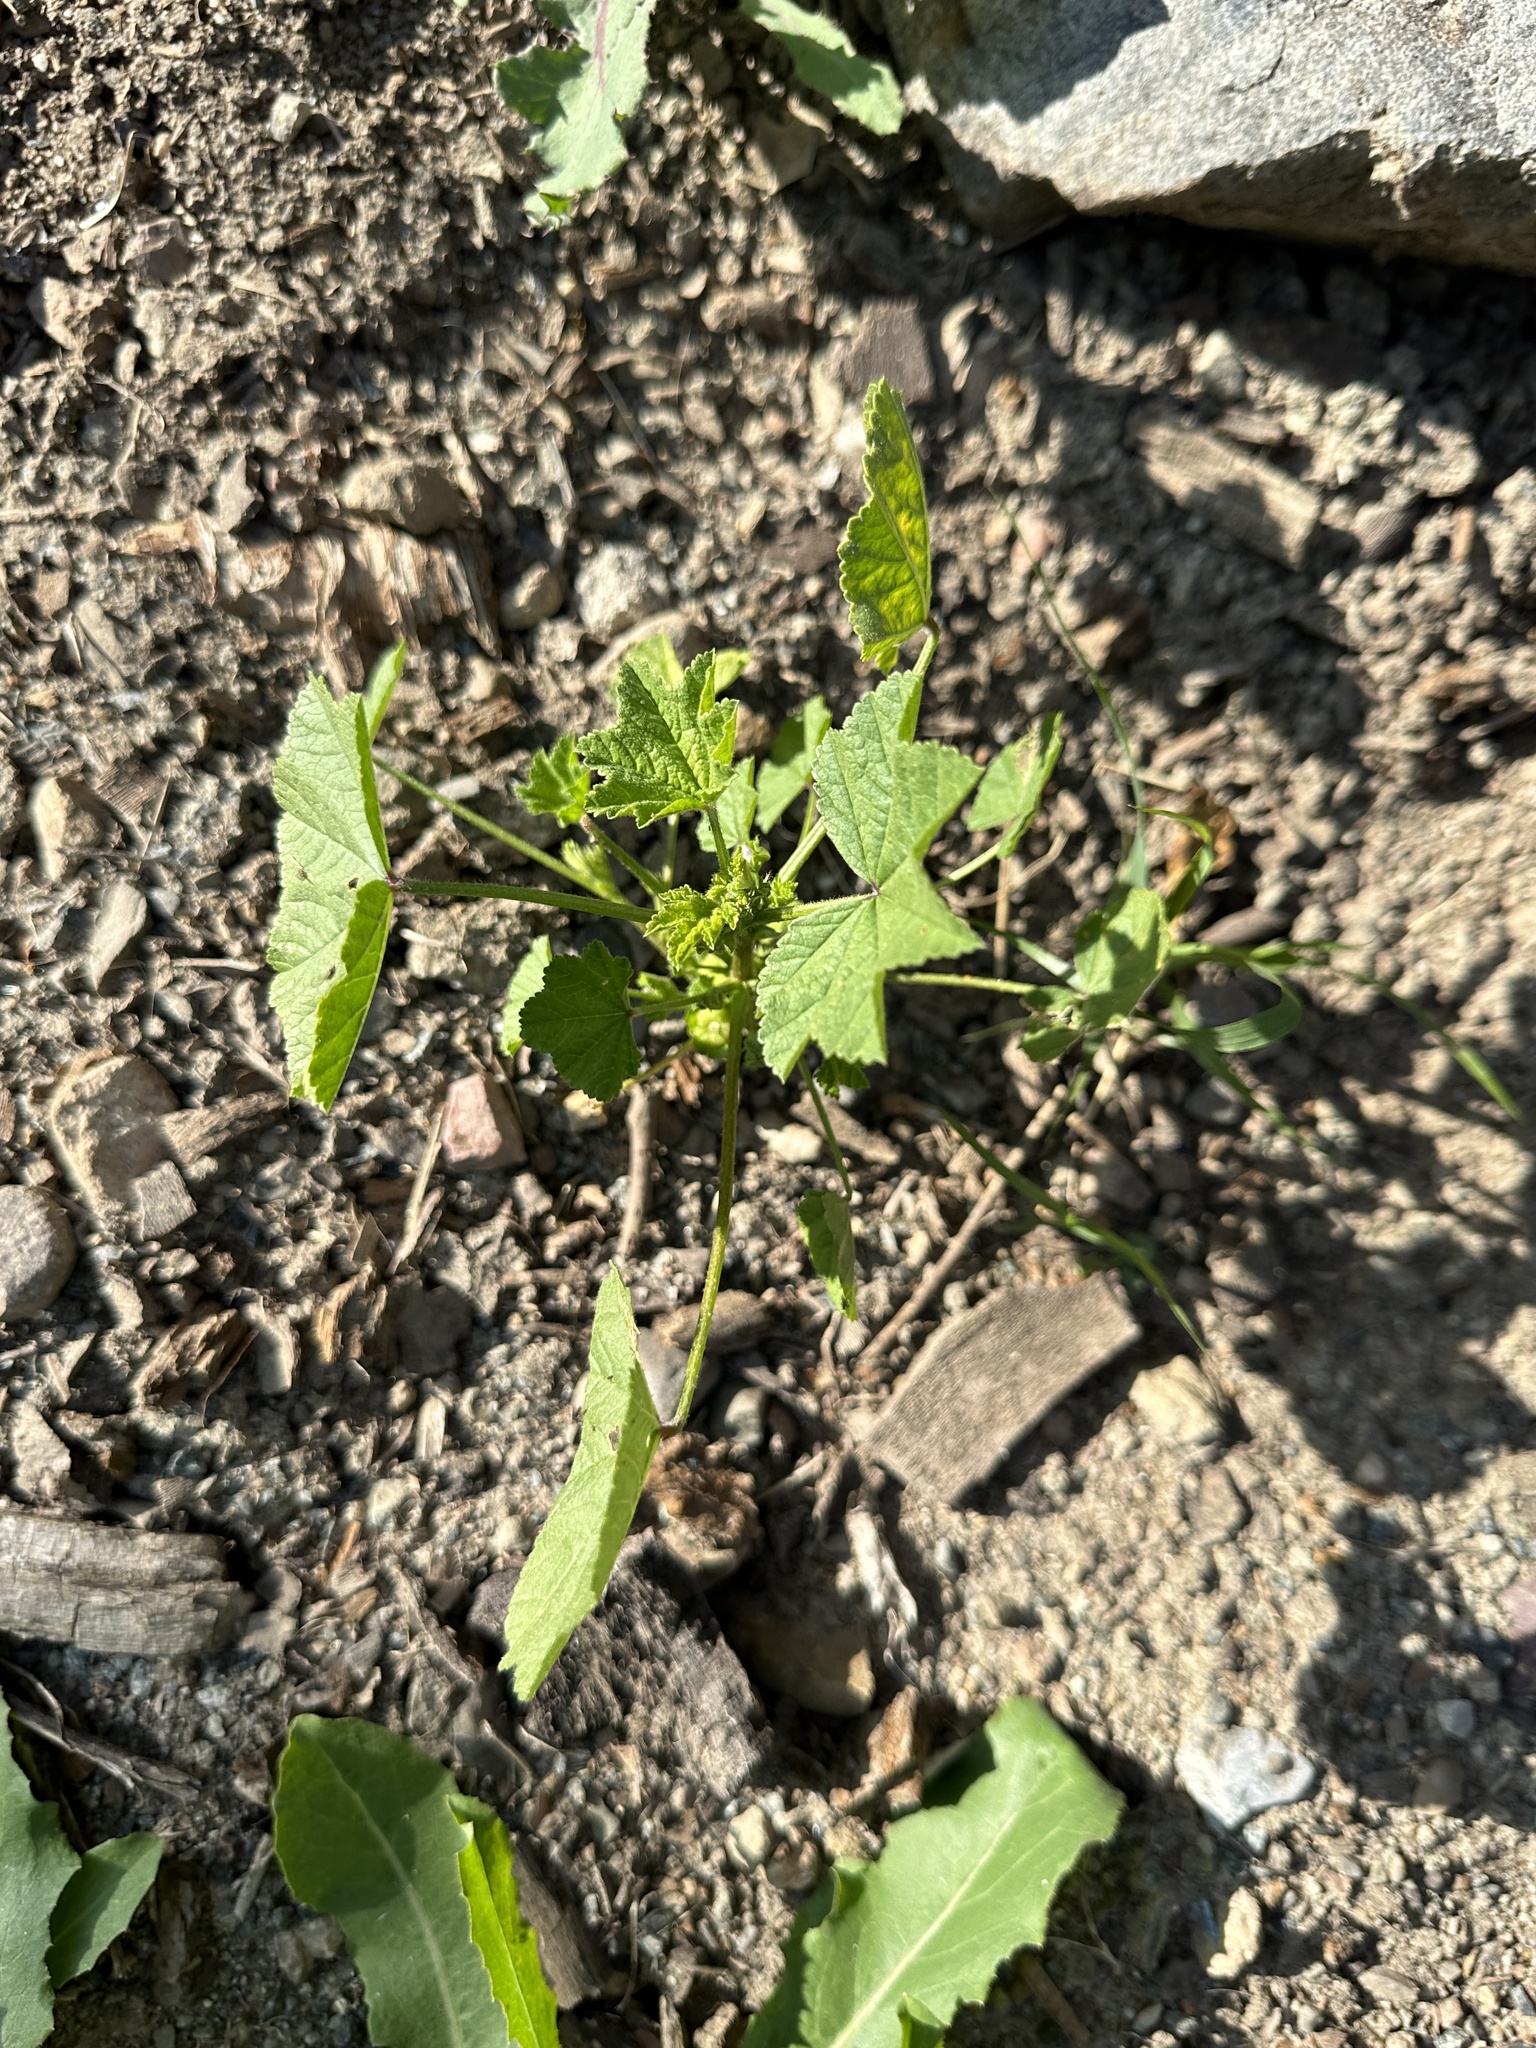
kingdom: Plantae
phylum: Tracheophyta
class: Magnoliopsida
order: Malvales
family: Malvaceae
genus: Malva
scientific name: Malva parviflora
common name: Least mallow
